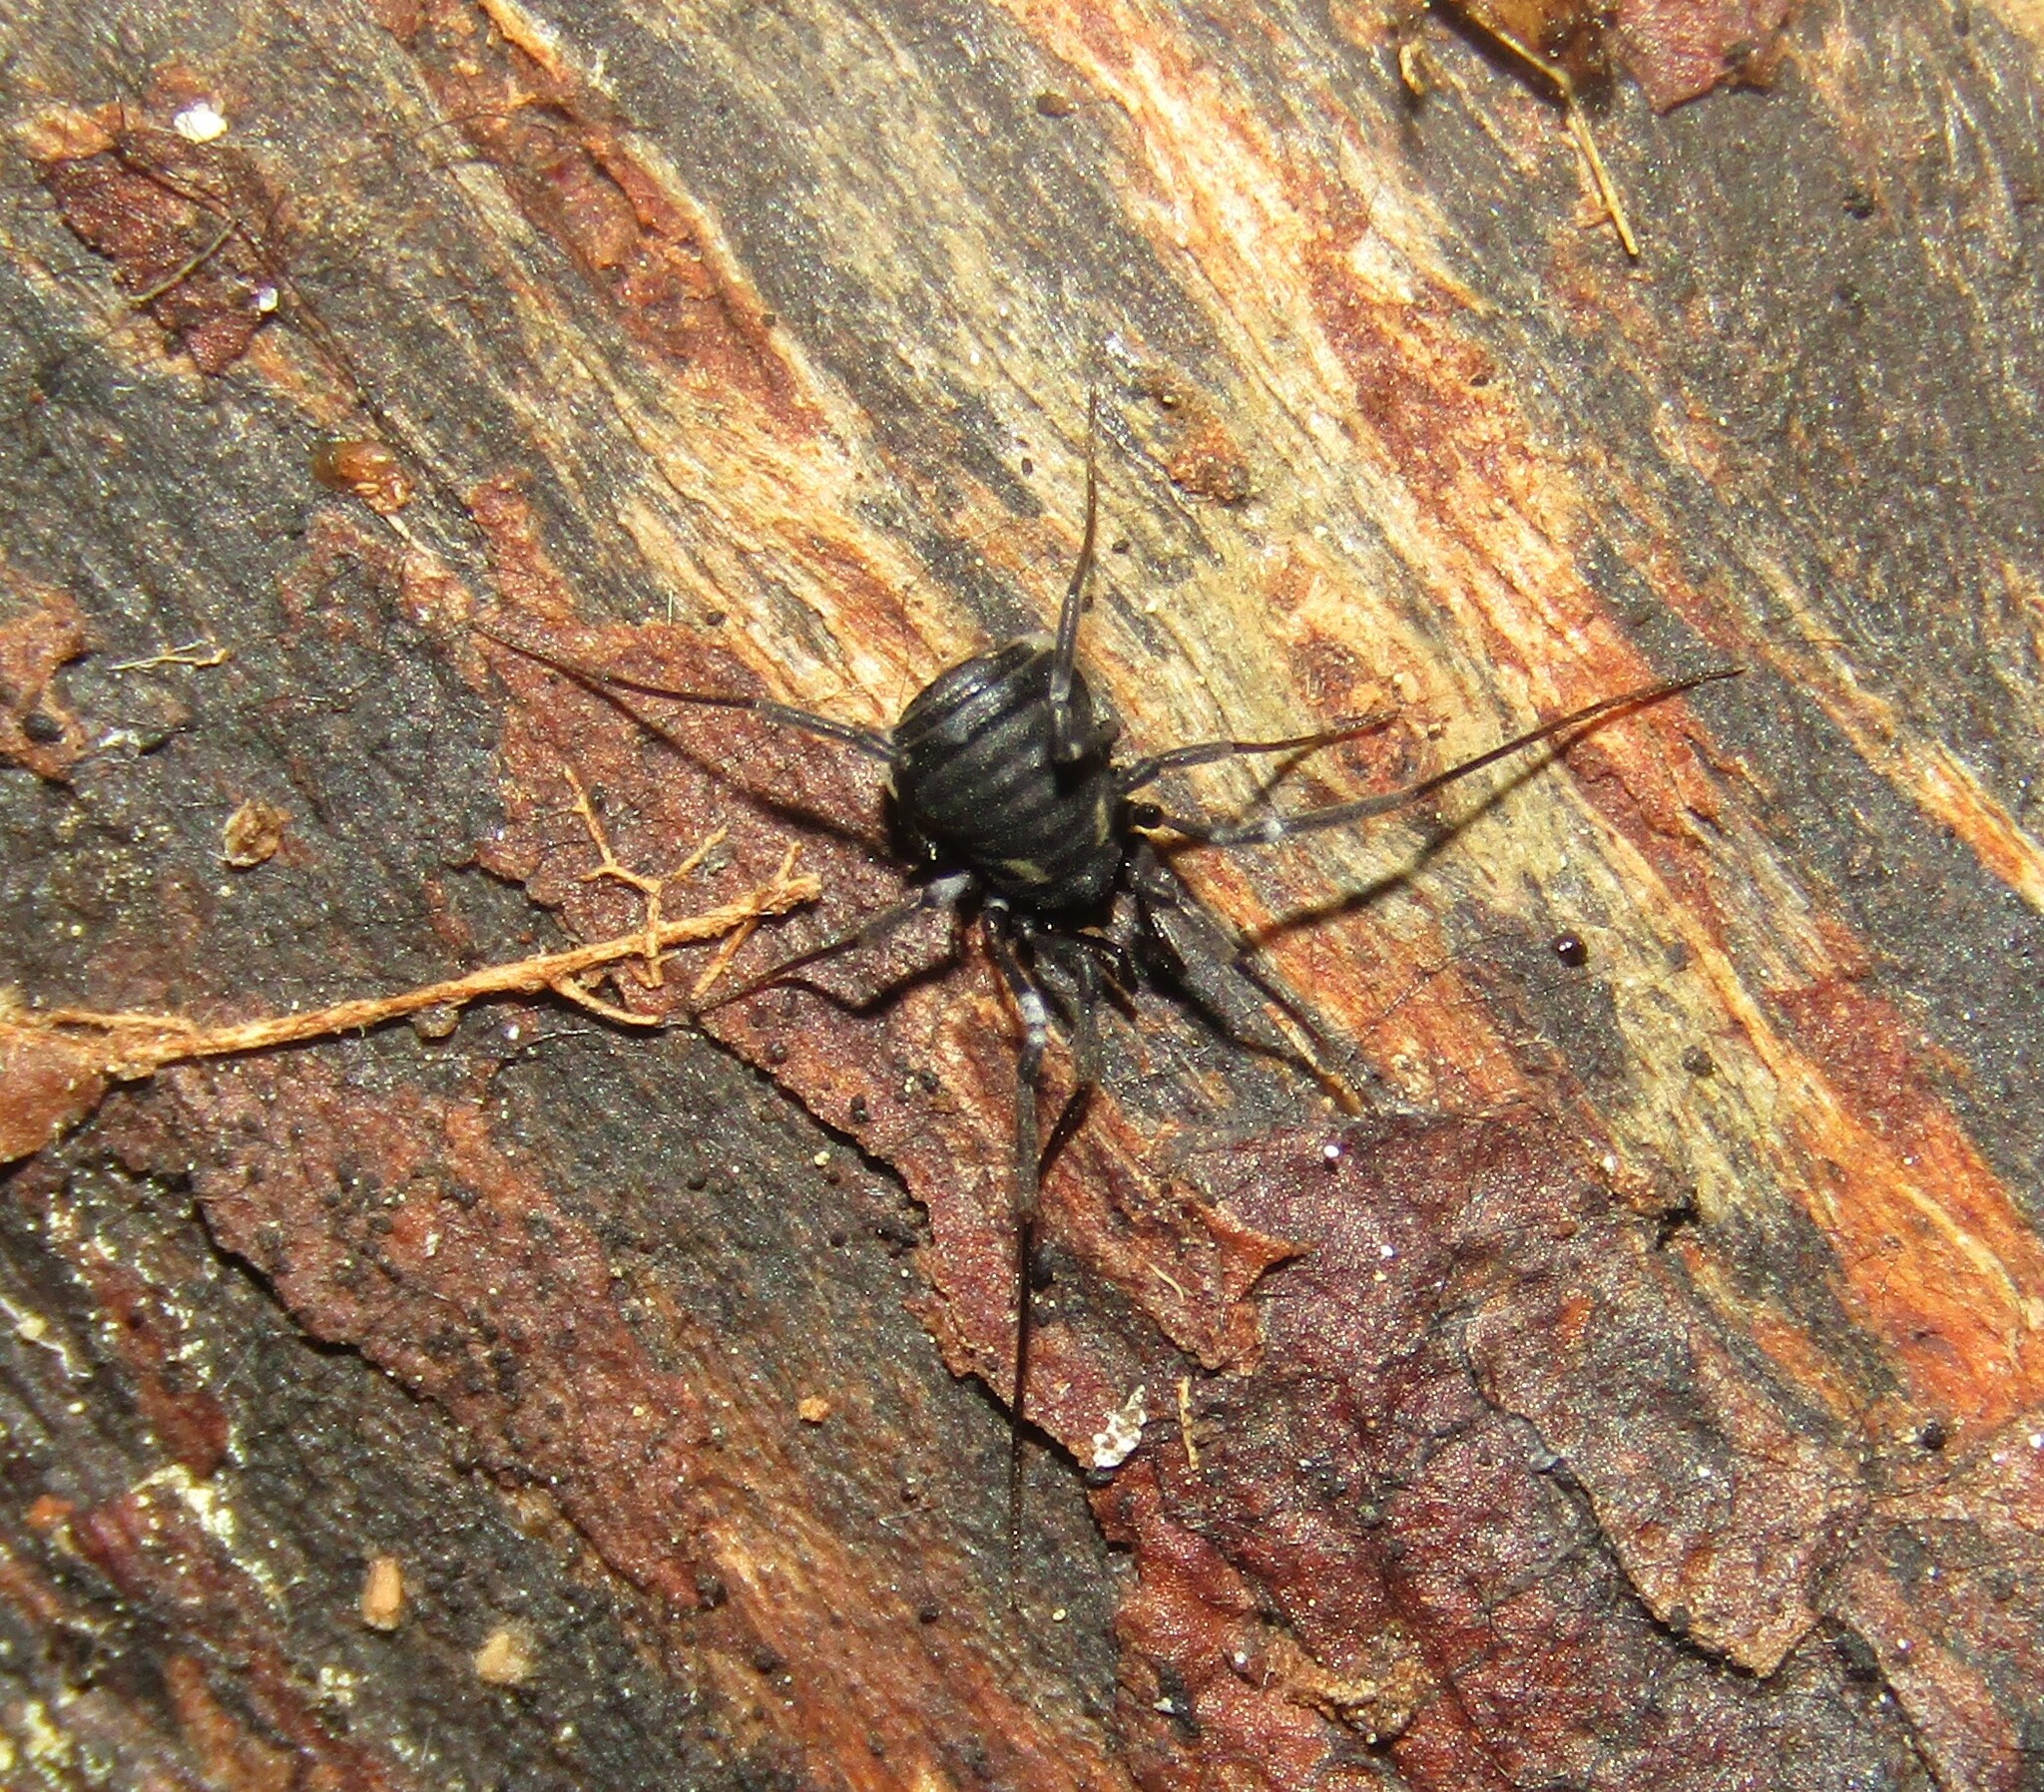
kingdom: Animalia
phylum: Arthropoda
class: Arachnida
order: Opiliones
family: Nemastomatidae
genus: Nemastoma
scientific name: Nemastoma lugubre
